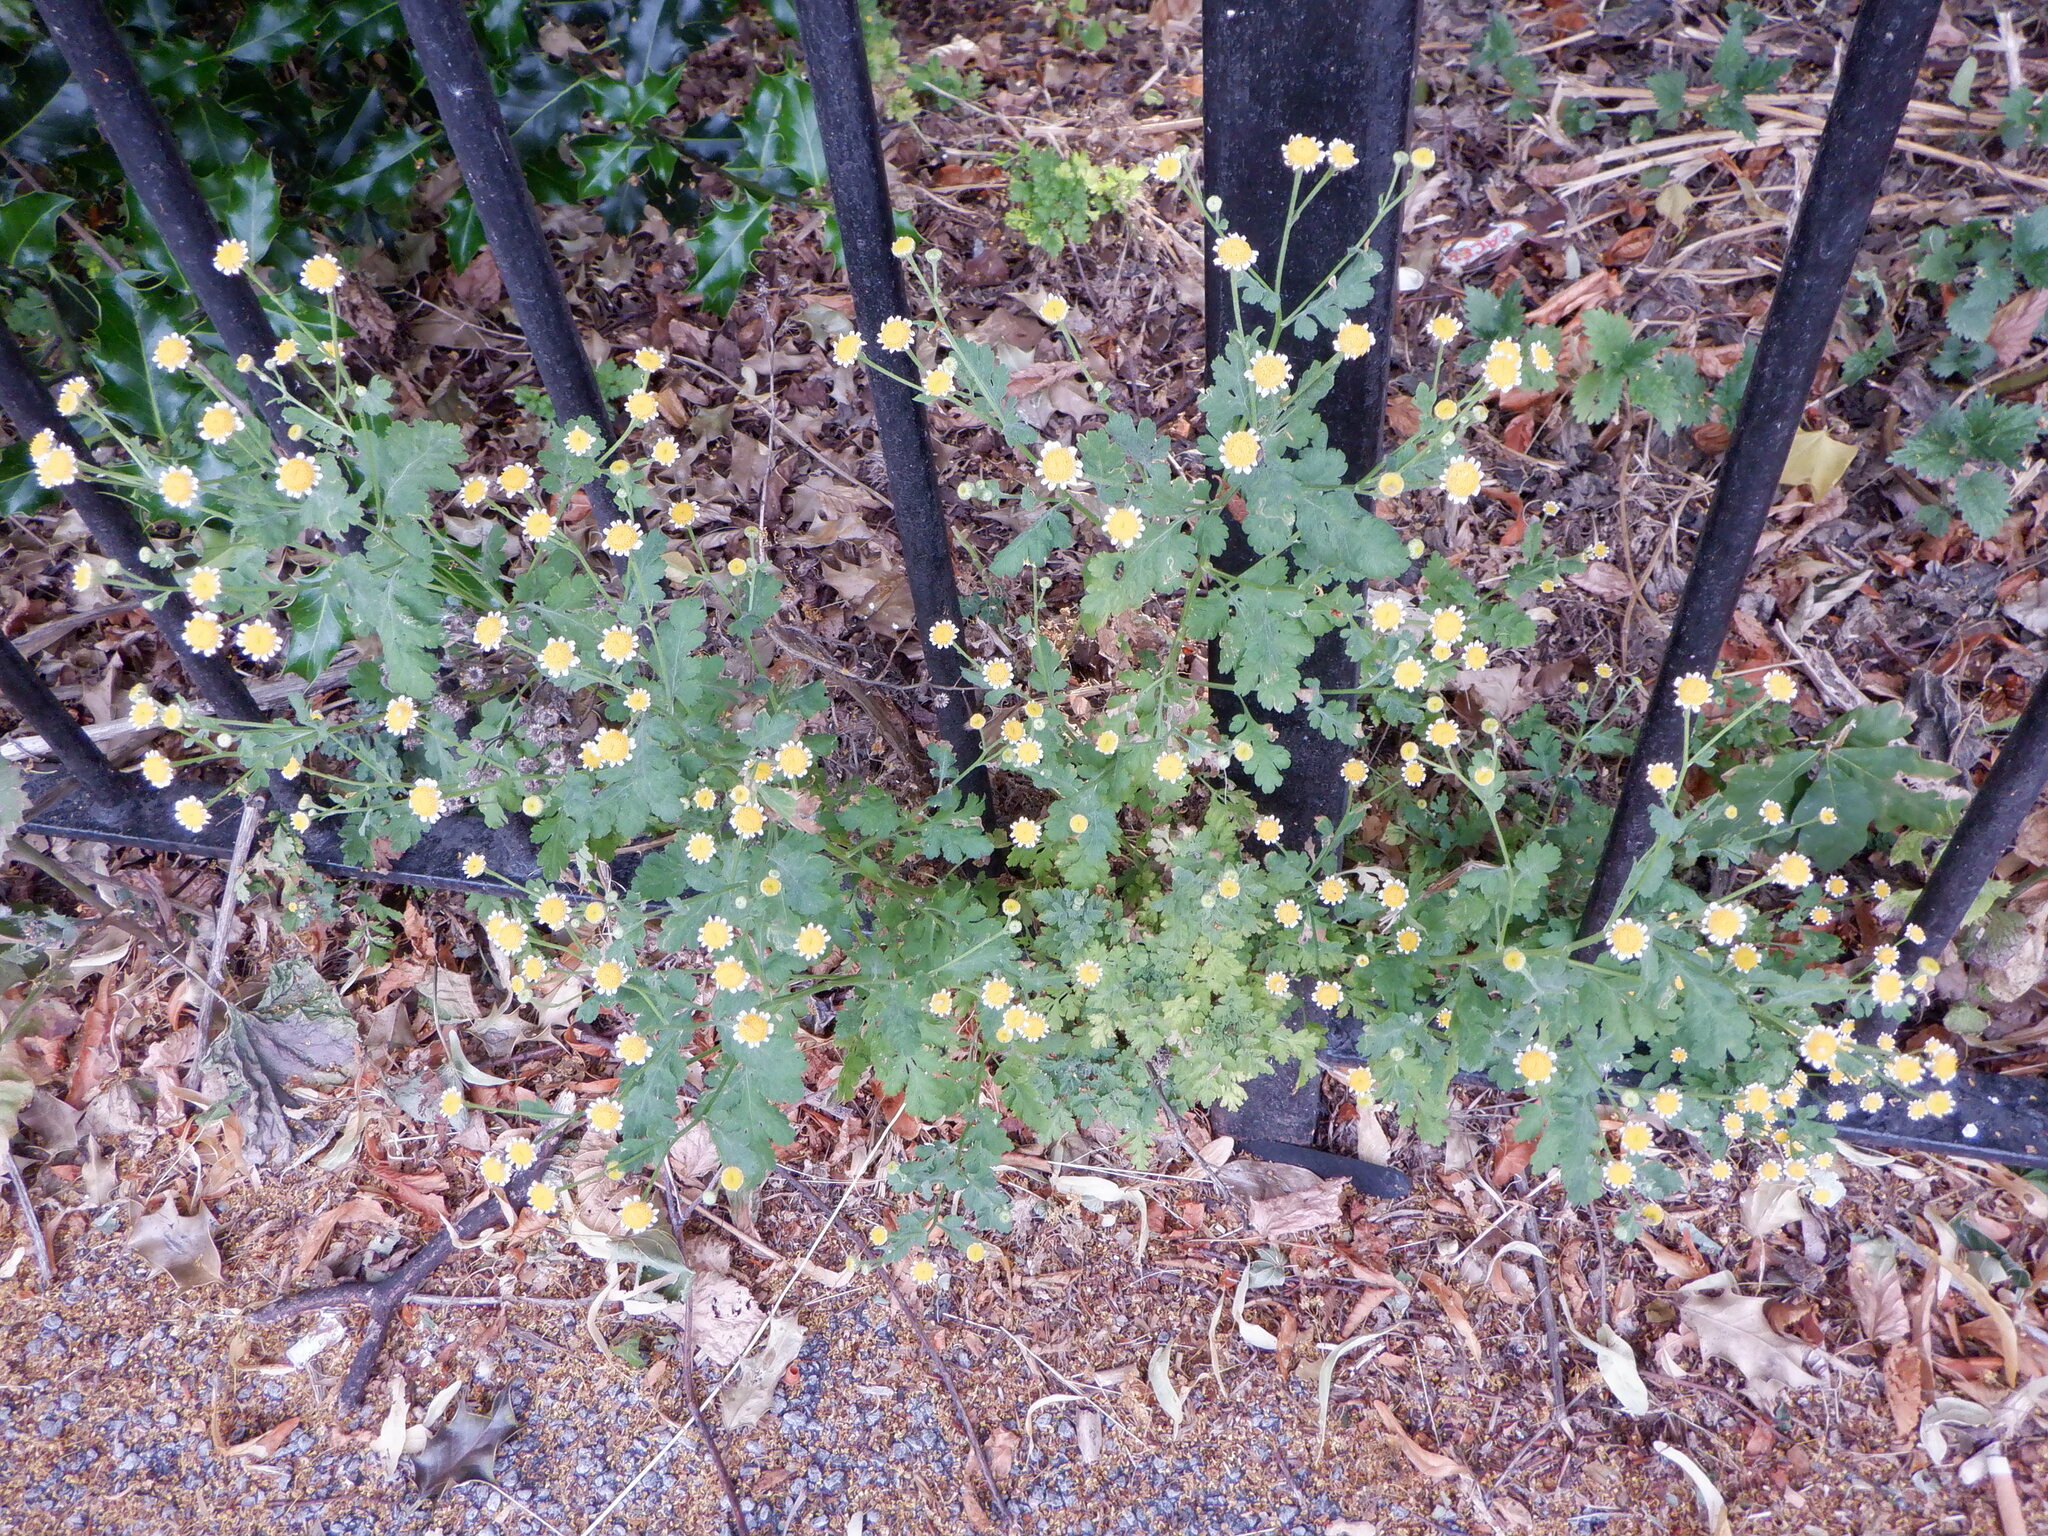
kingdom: Plantae
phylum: Tracheophyta
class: Magnoliopsida
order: Asterales
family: Asteraceae
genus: Tanacetum
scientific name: Tanacetum parthenium
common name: Feverfew
